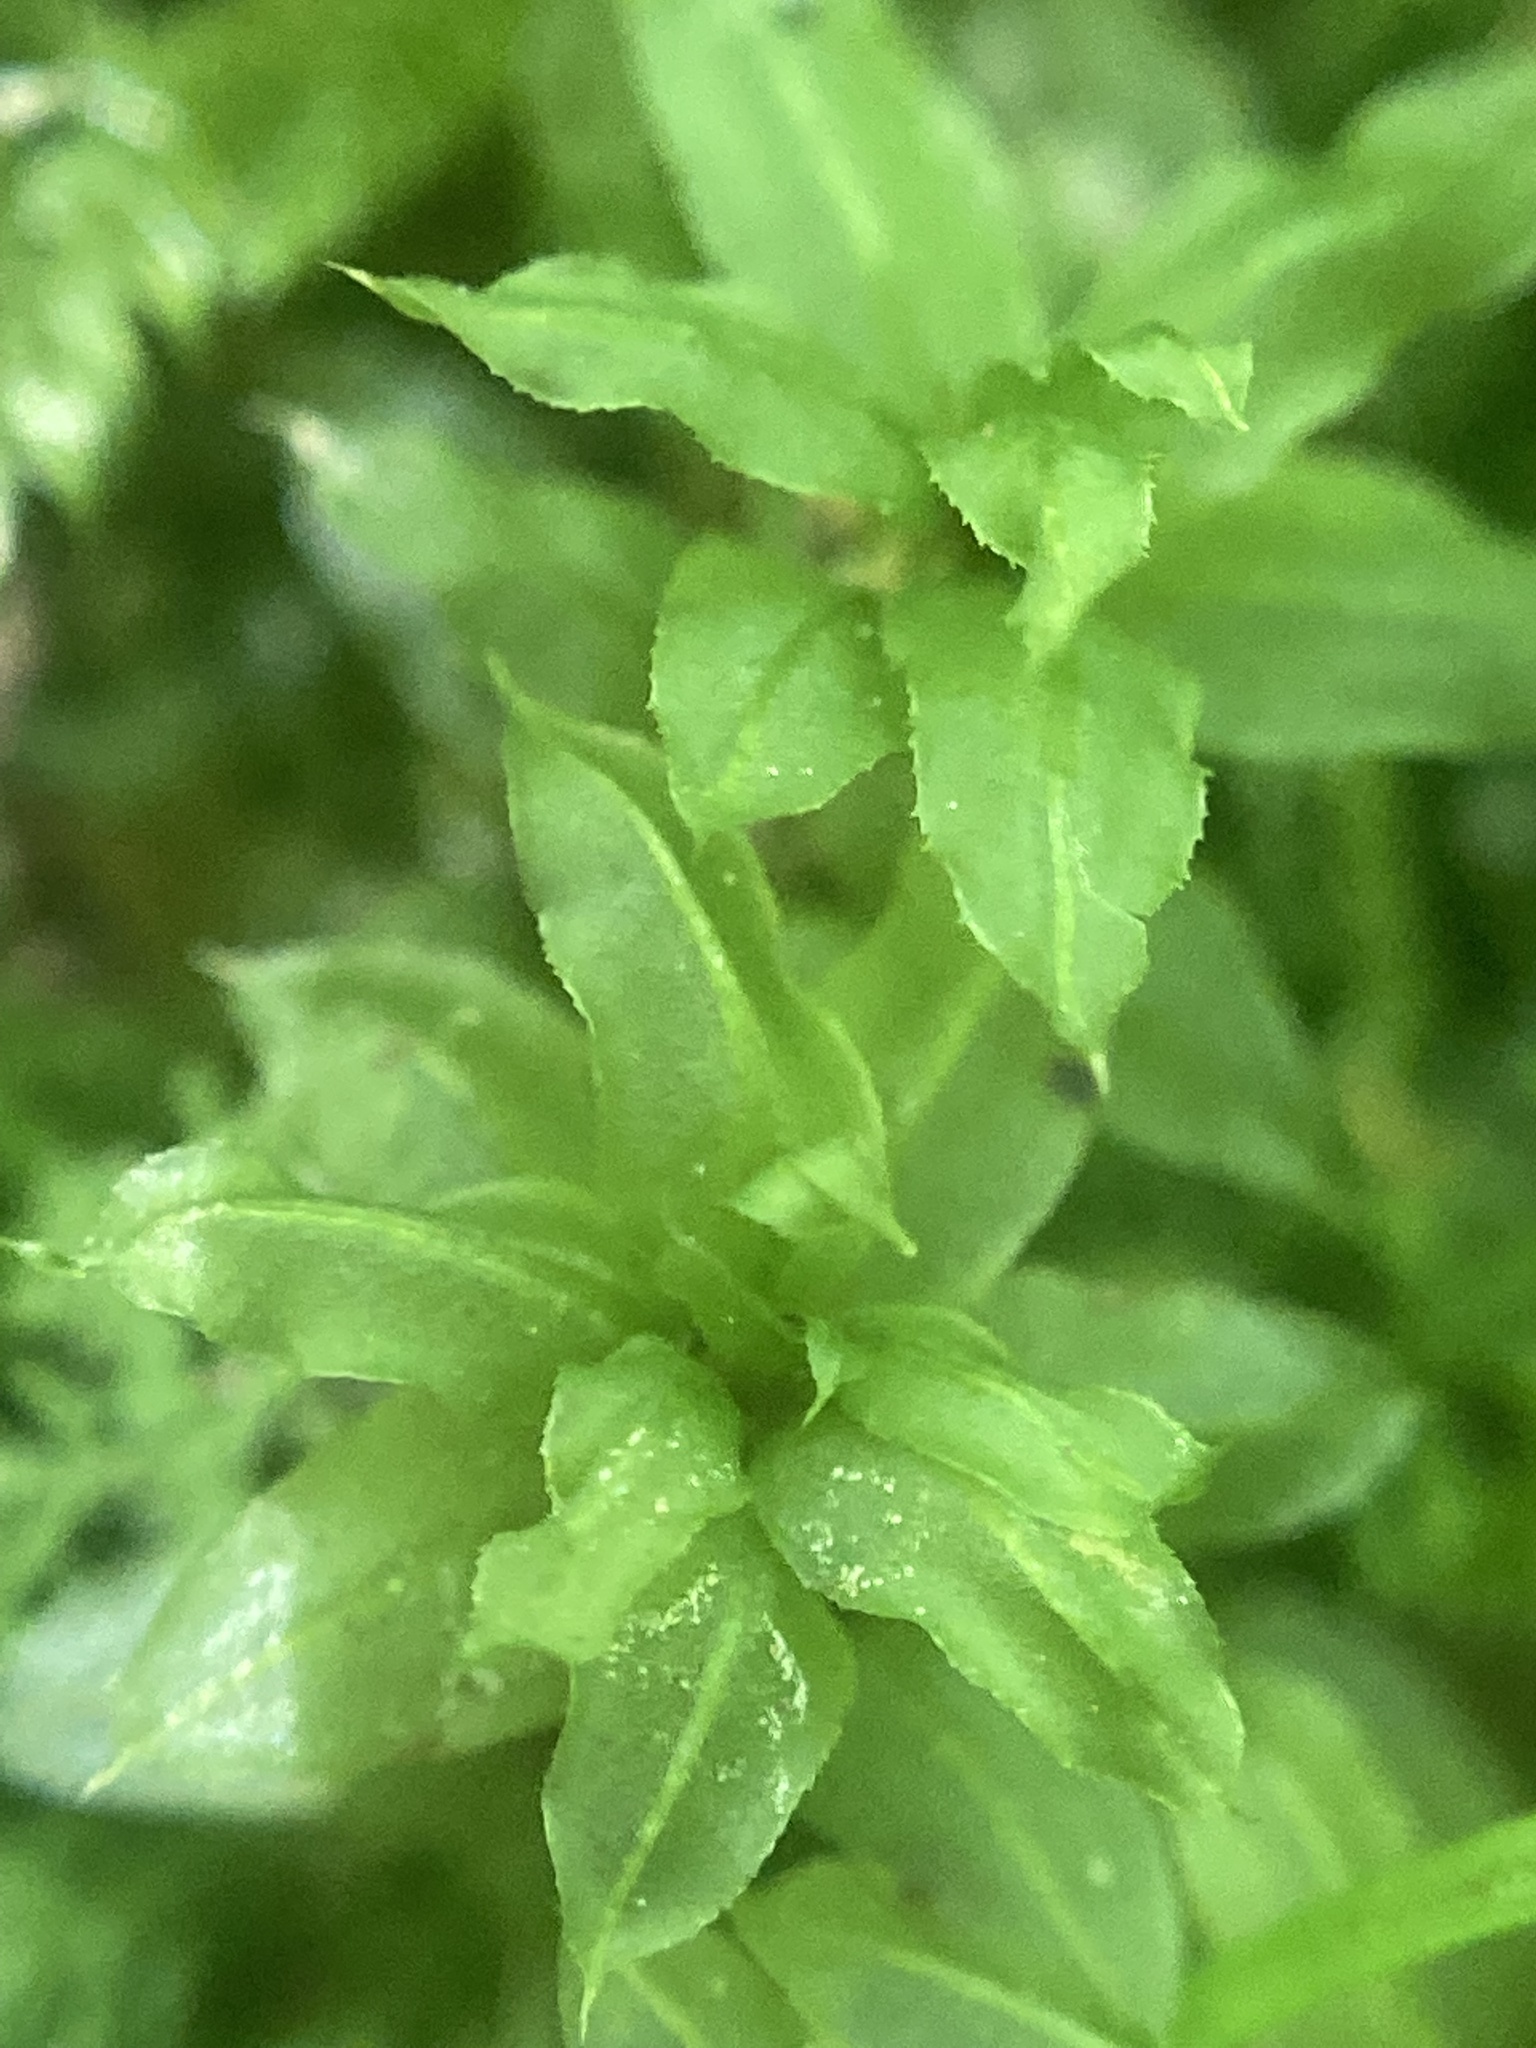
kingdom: Plantae
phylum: Bryophyta
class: Bryopsida
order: Bryales
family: Mniaceae
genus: Plagiomnium
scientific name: Plagiomnium ciliare
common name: Toothed leafy moss
